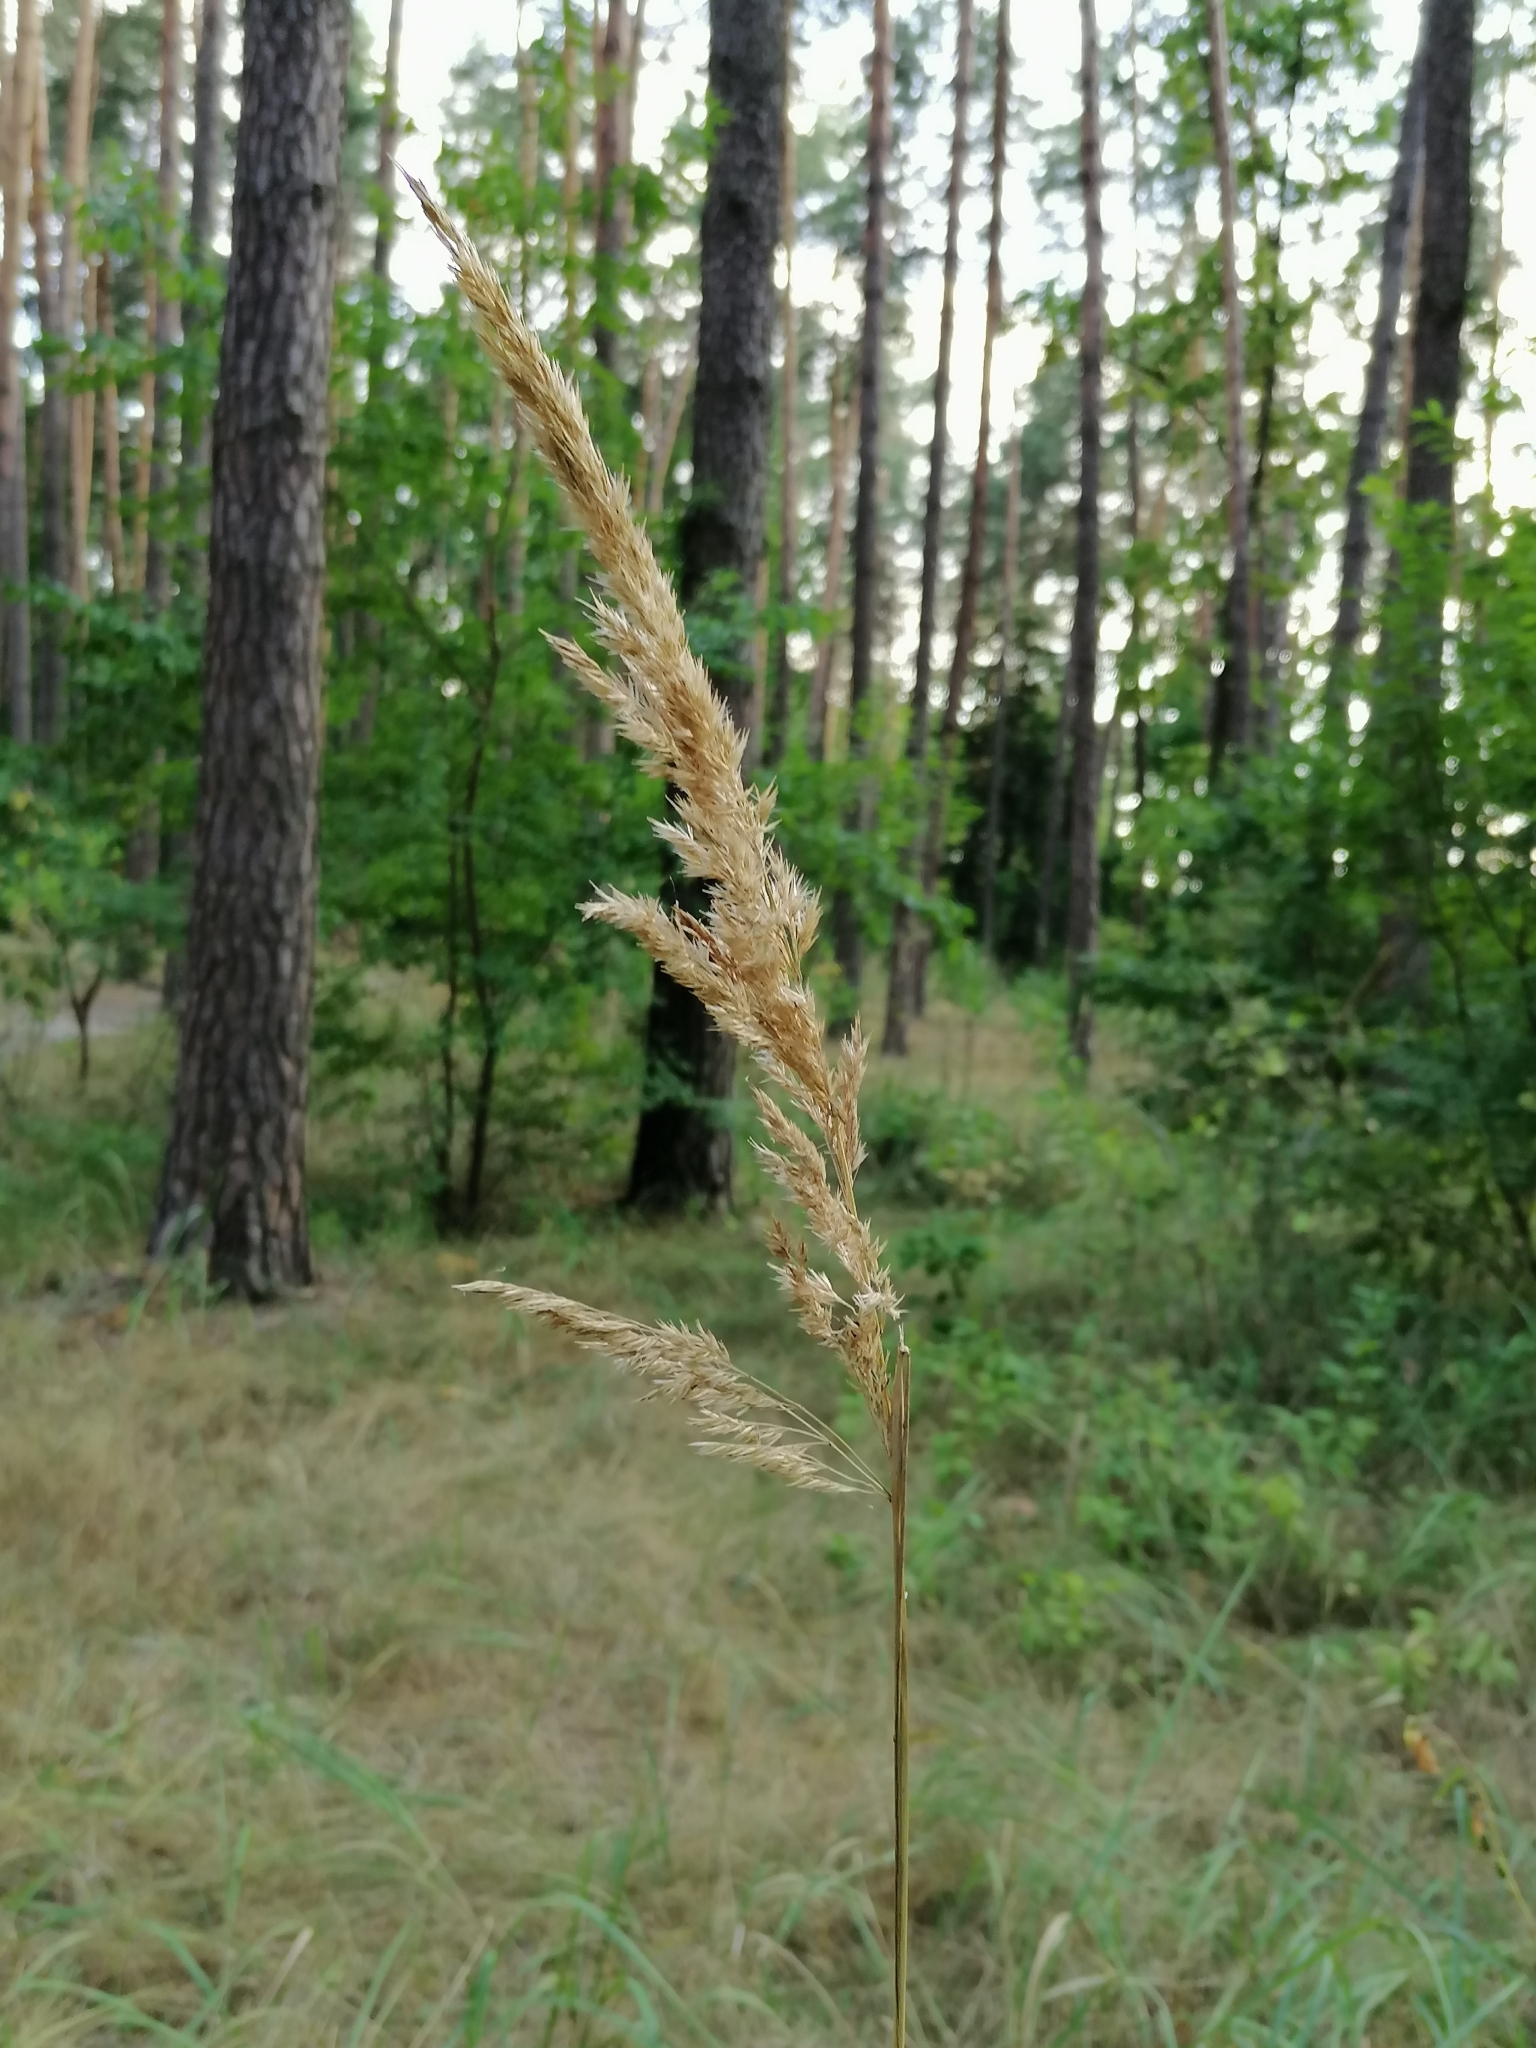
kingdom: Plantae
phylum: Tracheophyta
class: Liliopsida
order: Poales
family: Poaceae
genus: Calamagrostis
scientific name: Calamagrostis epigejos
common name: Wood small-reed
